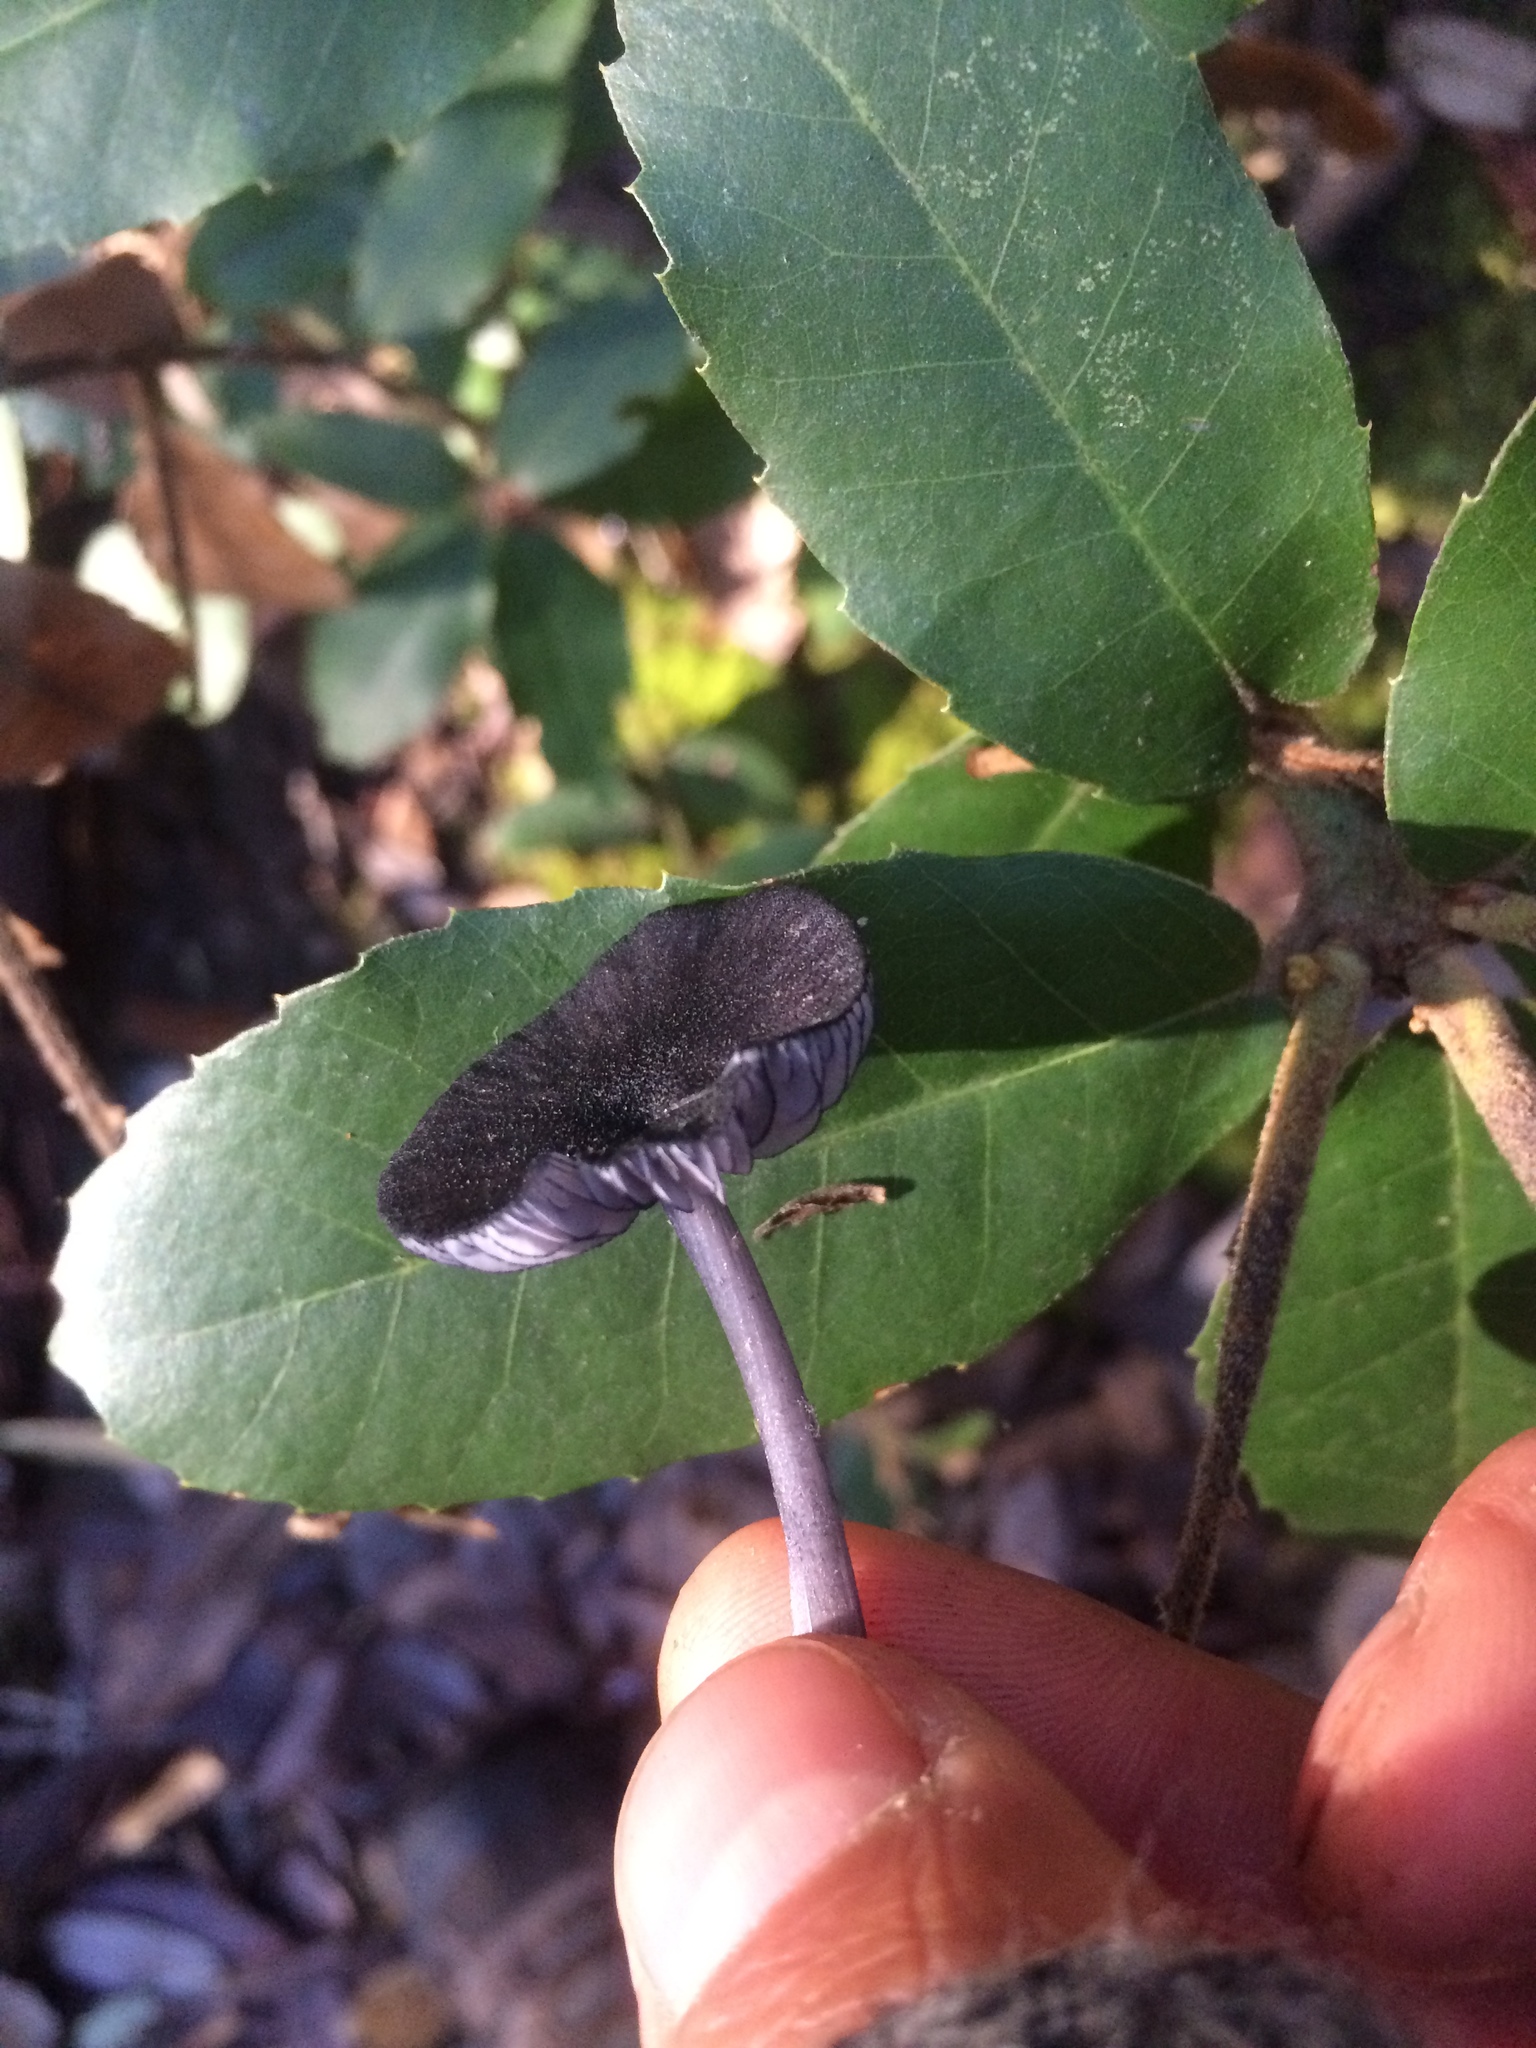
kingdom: Fungi
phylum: Basidiomycota
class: Agaricomycetes
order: Agaricales
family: Entolomataceae
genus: Entoloma
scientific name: Entoloma serrulatum
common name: Blue edge pinkgill
